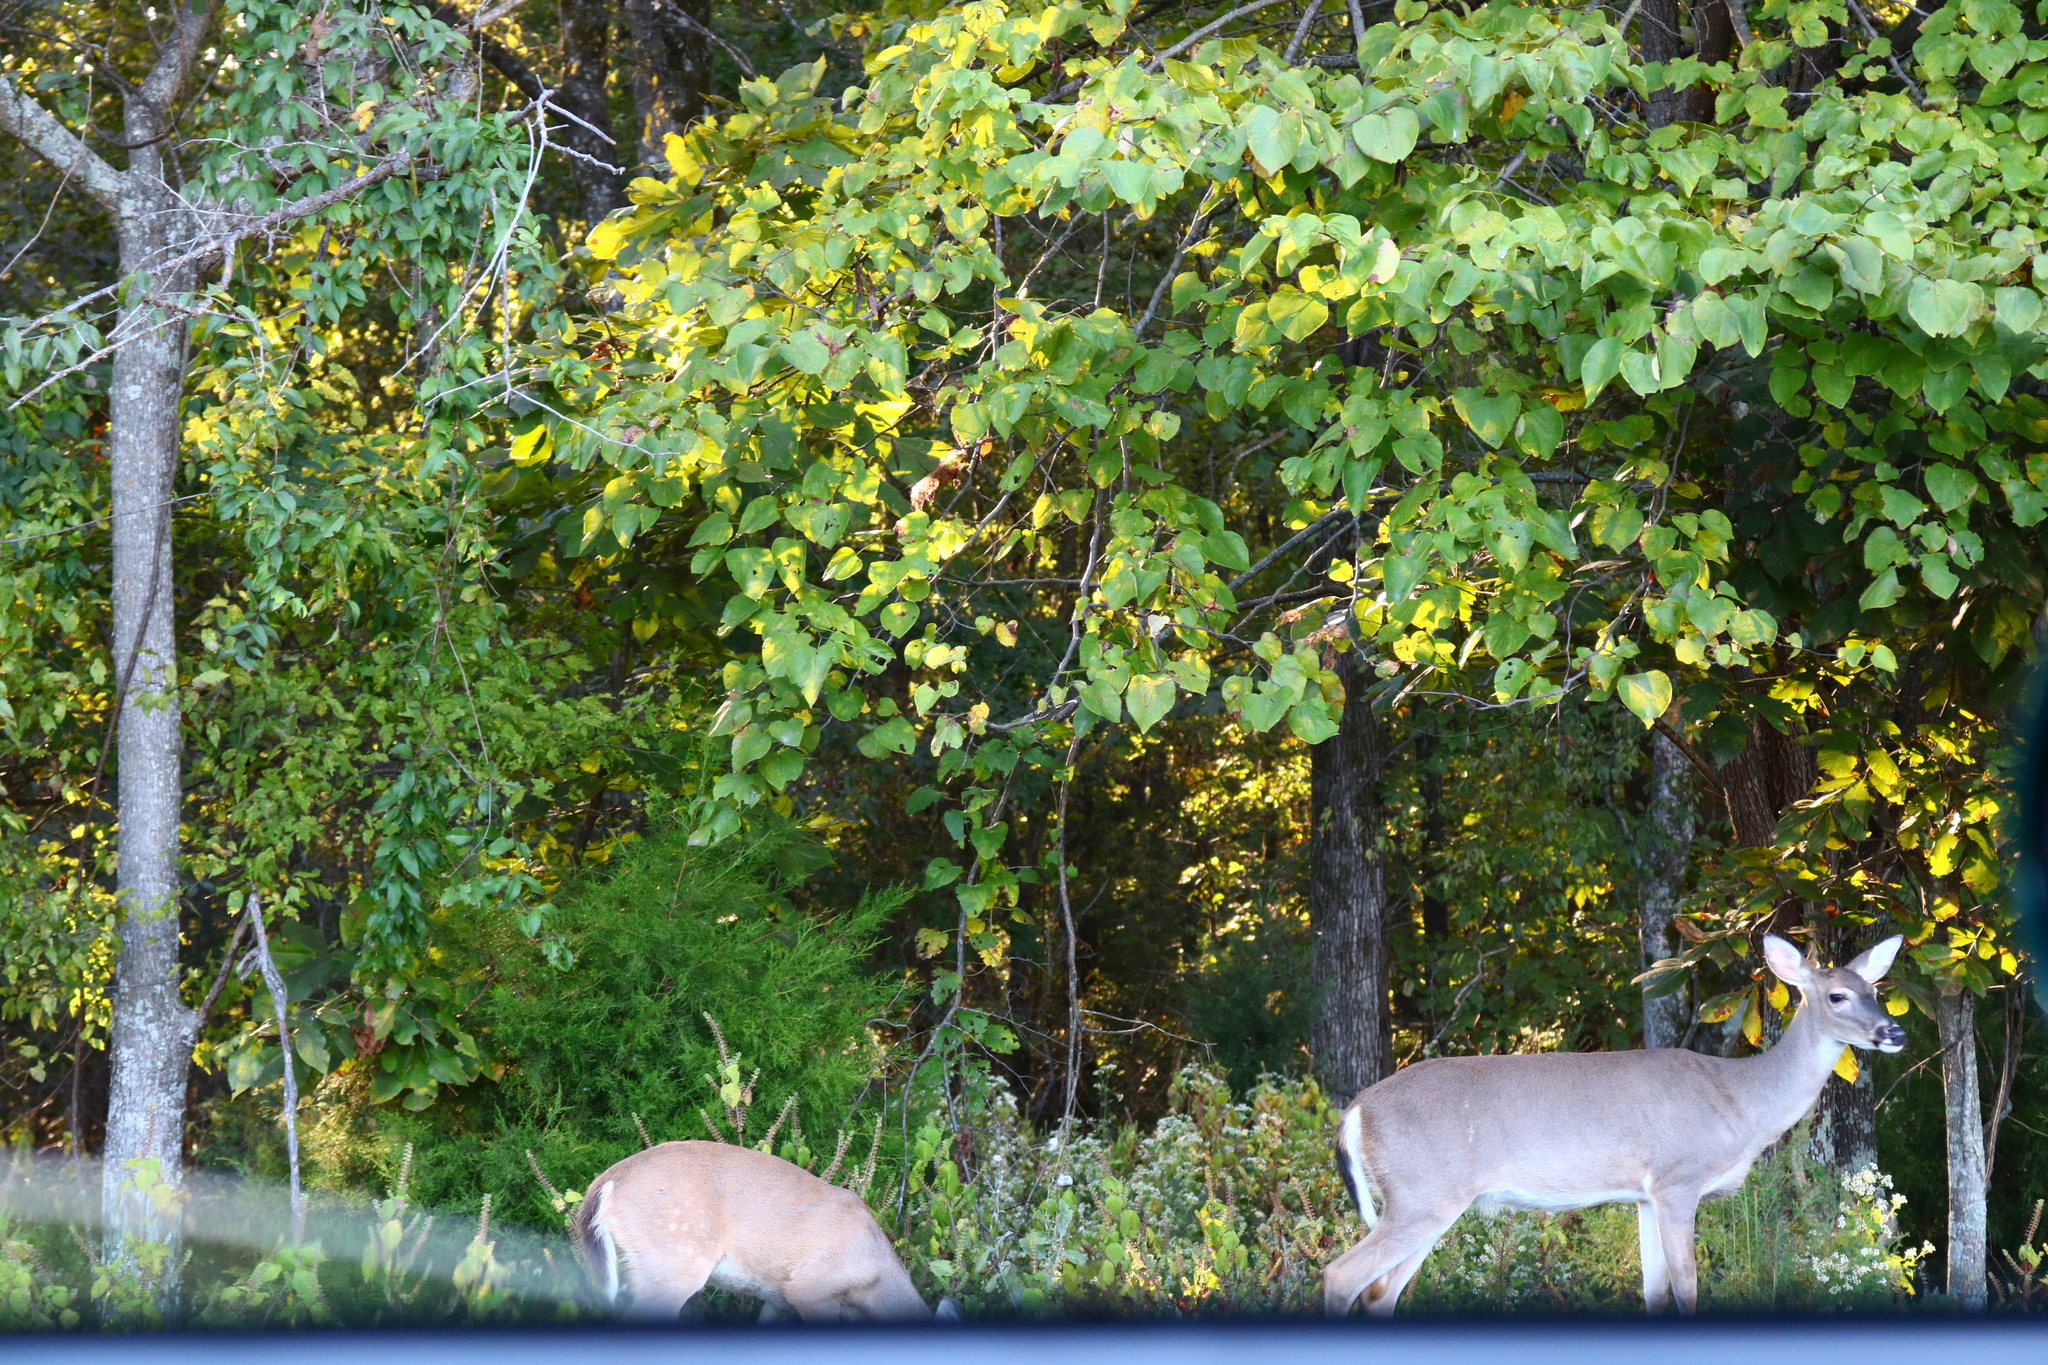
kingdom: Animalia
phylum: Chordata
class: Mammalia
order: Artiodactyla
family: Cervidae
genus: Odocoileus
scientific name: Odocoileus virginianus
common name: White-tailed deer
